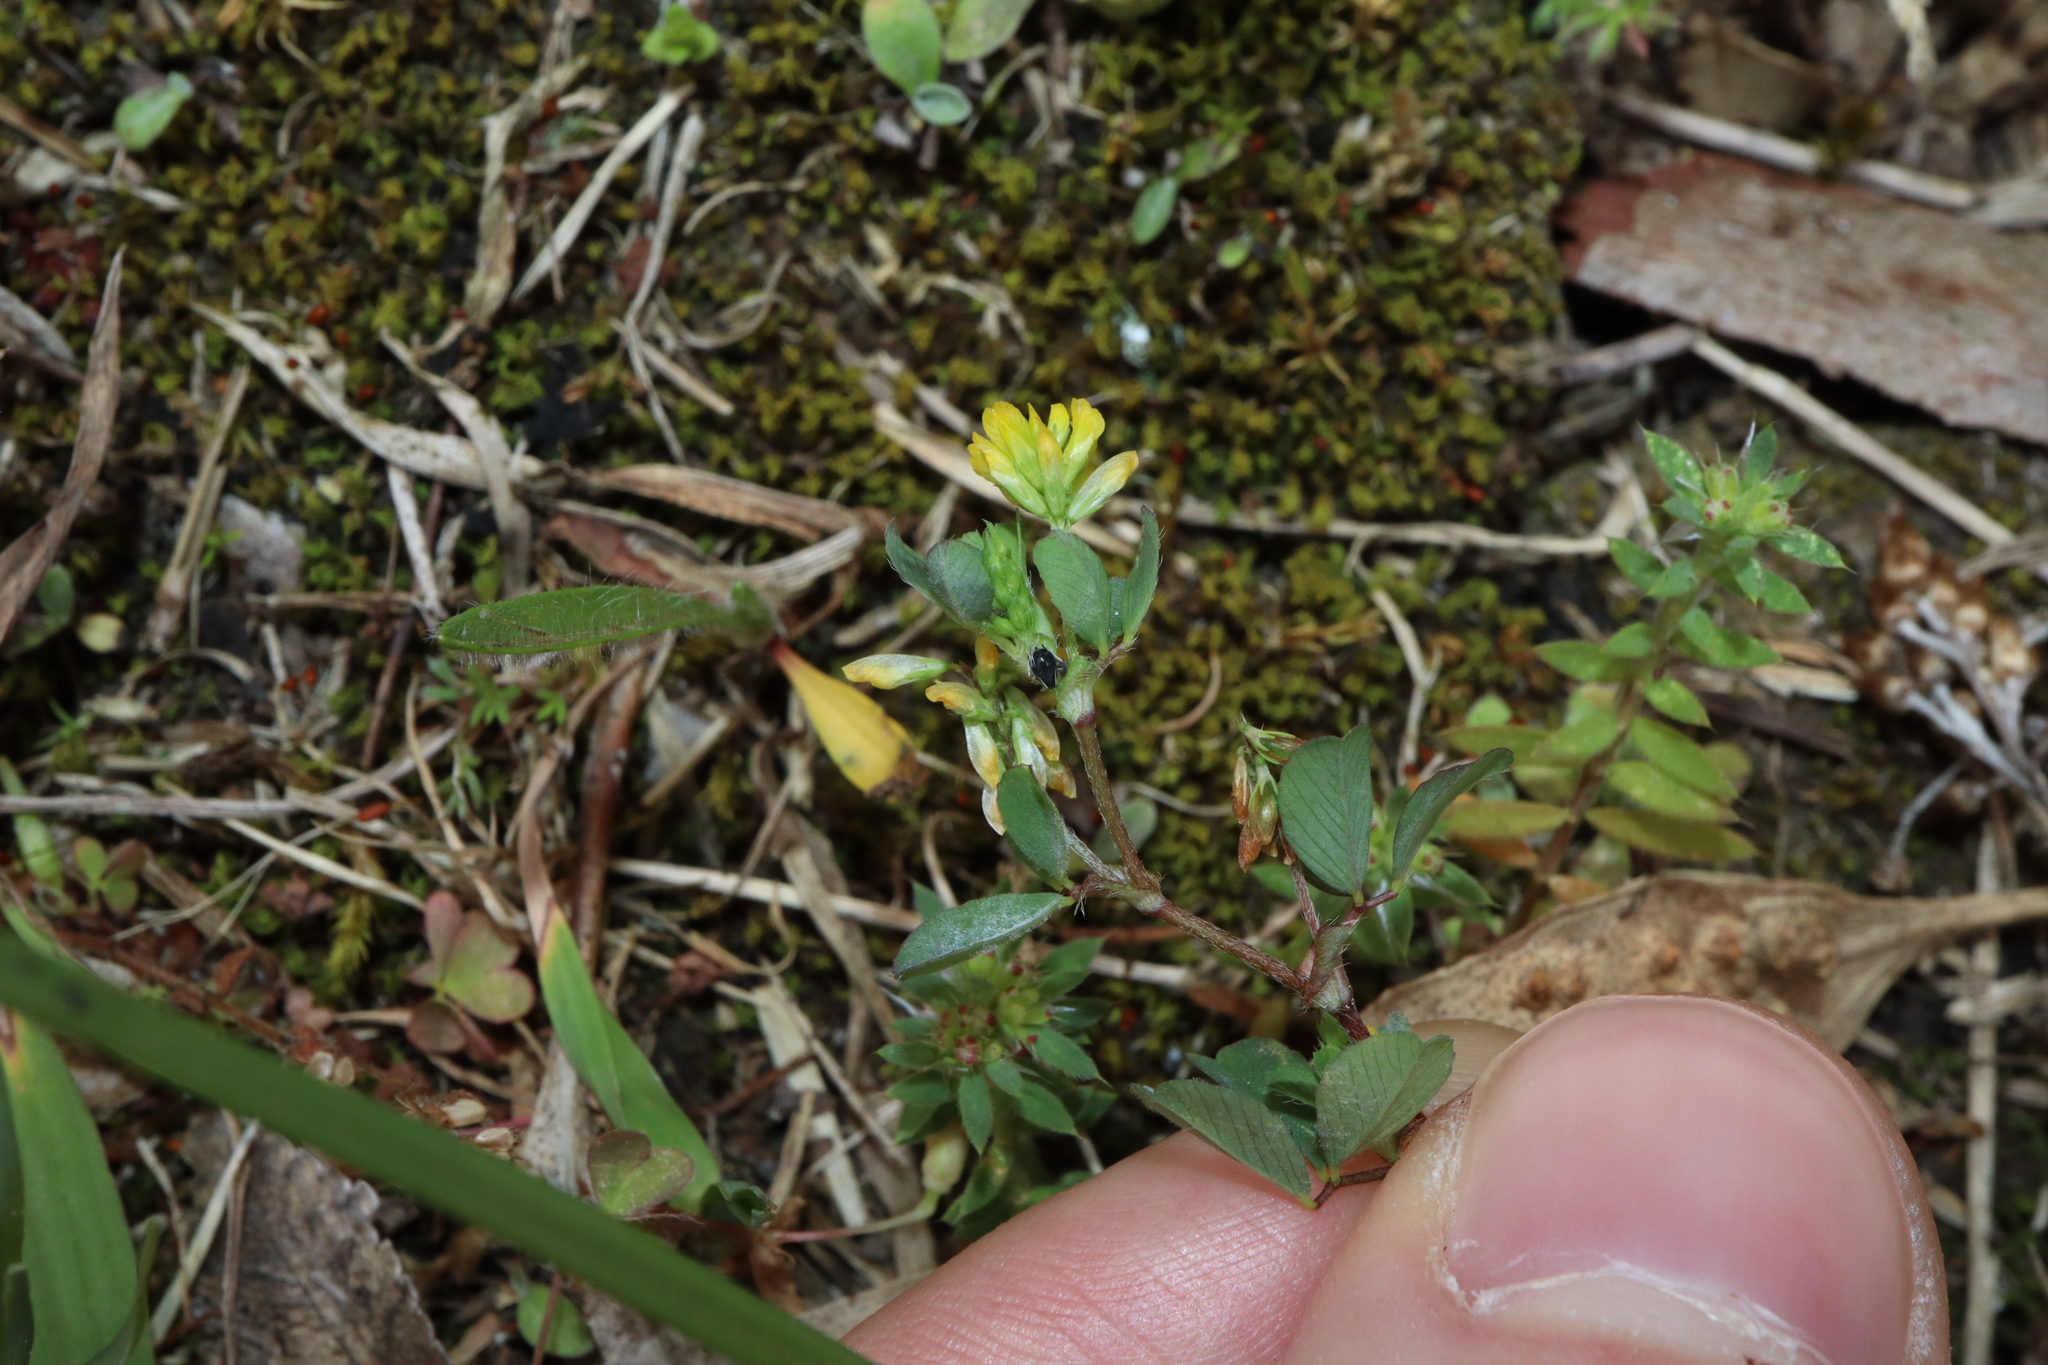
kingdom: Plantae
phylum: Tracheophyta
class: Magnoliopsida
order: Fabales
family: Fabaceae
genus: Trifolium
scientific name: Trifolium dubium
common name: Suckling clover
